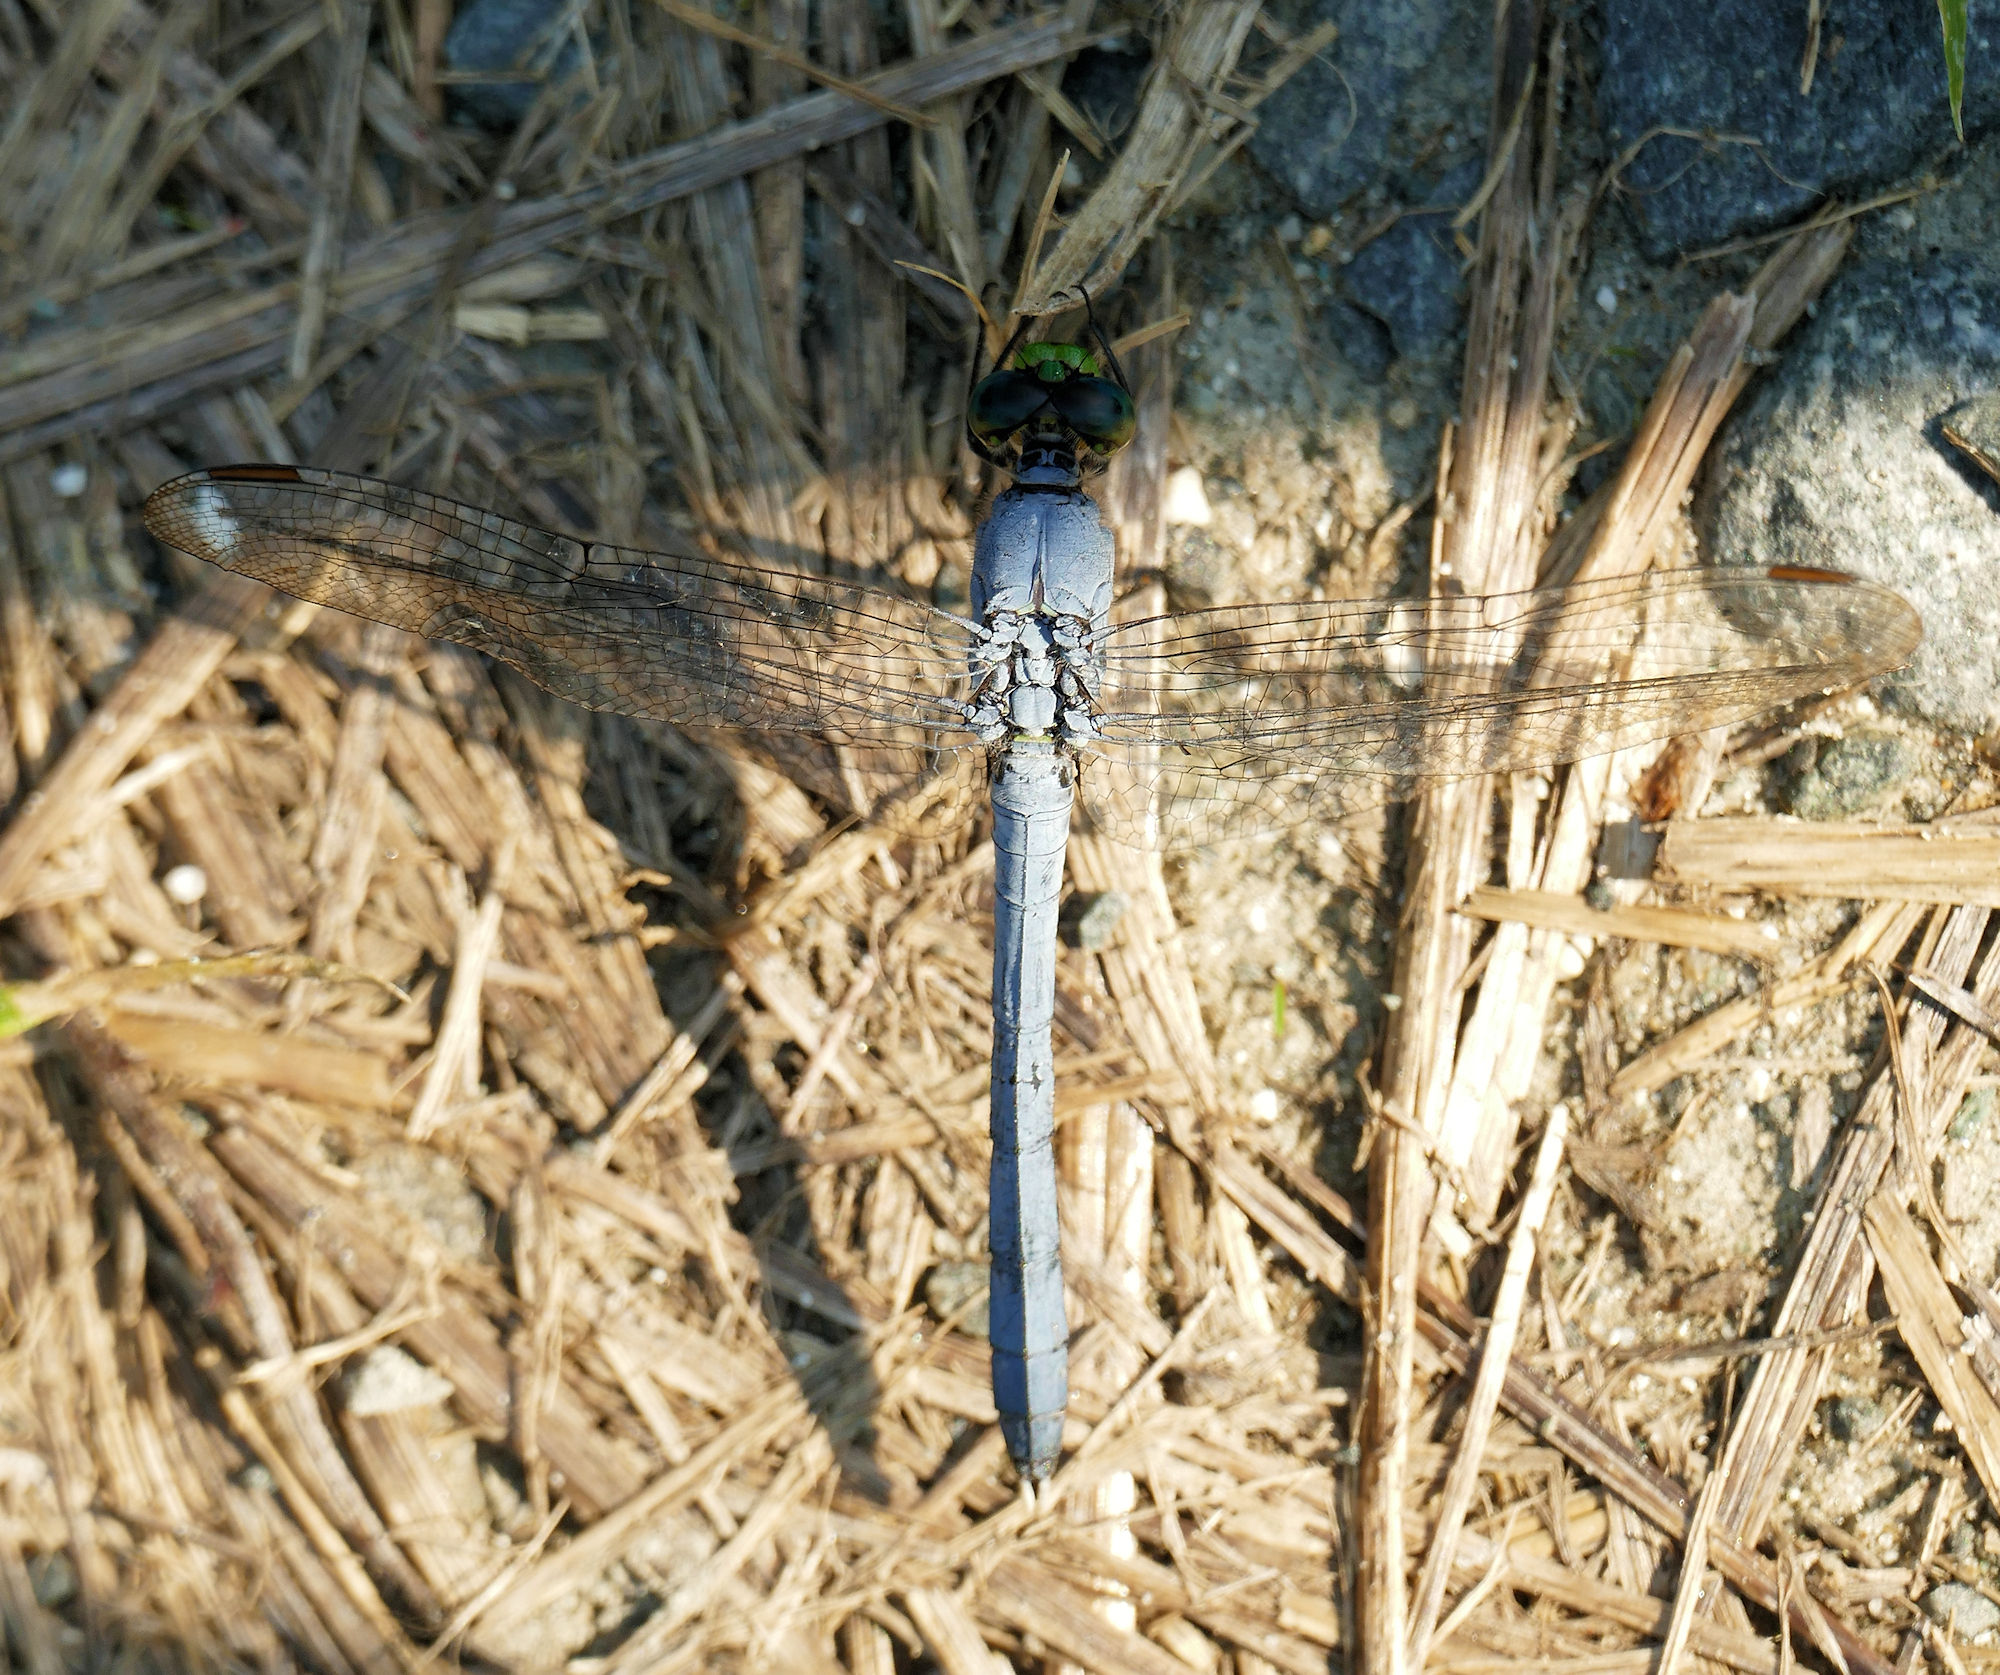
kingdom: Animalia
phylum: Arthropoda
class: Insecta
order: Odonata
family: Libellulidae
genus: Erythemis
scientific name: Erythemis simplicicollis
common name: Eastern pondhawk
